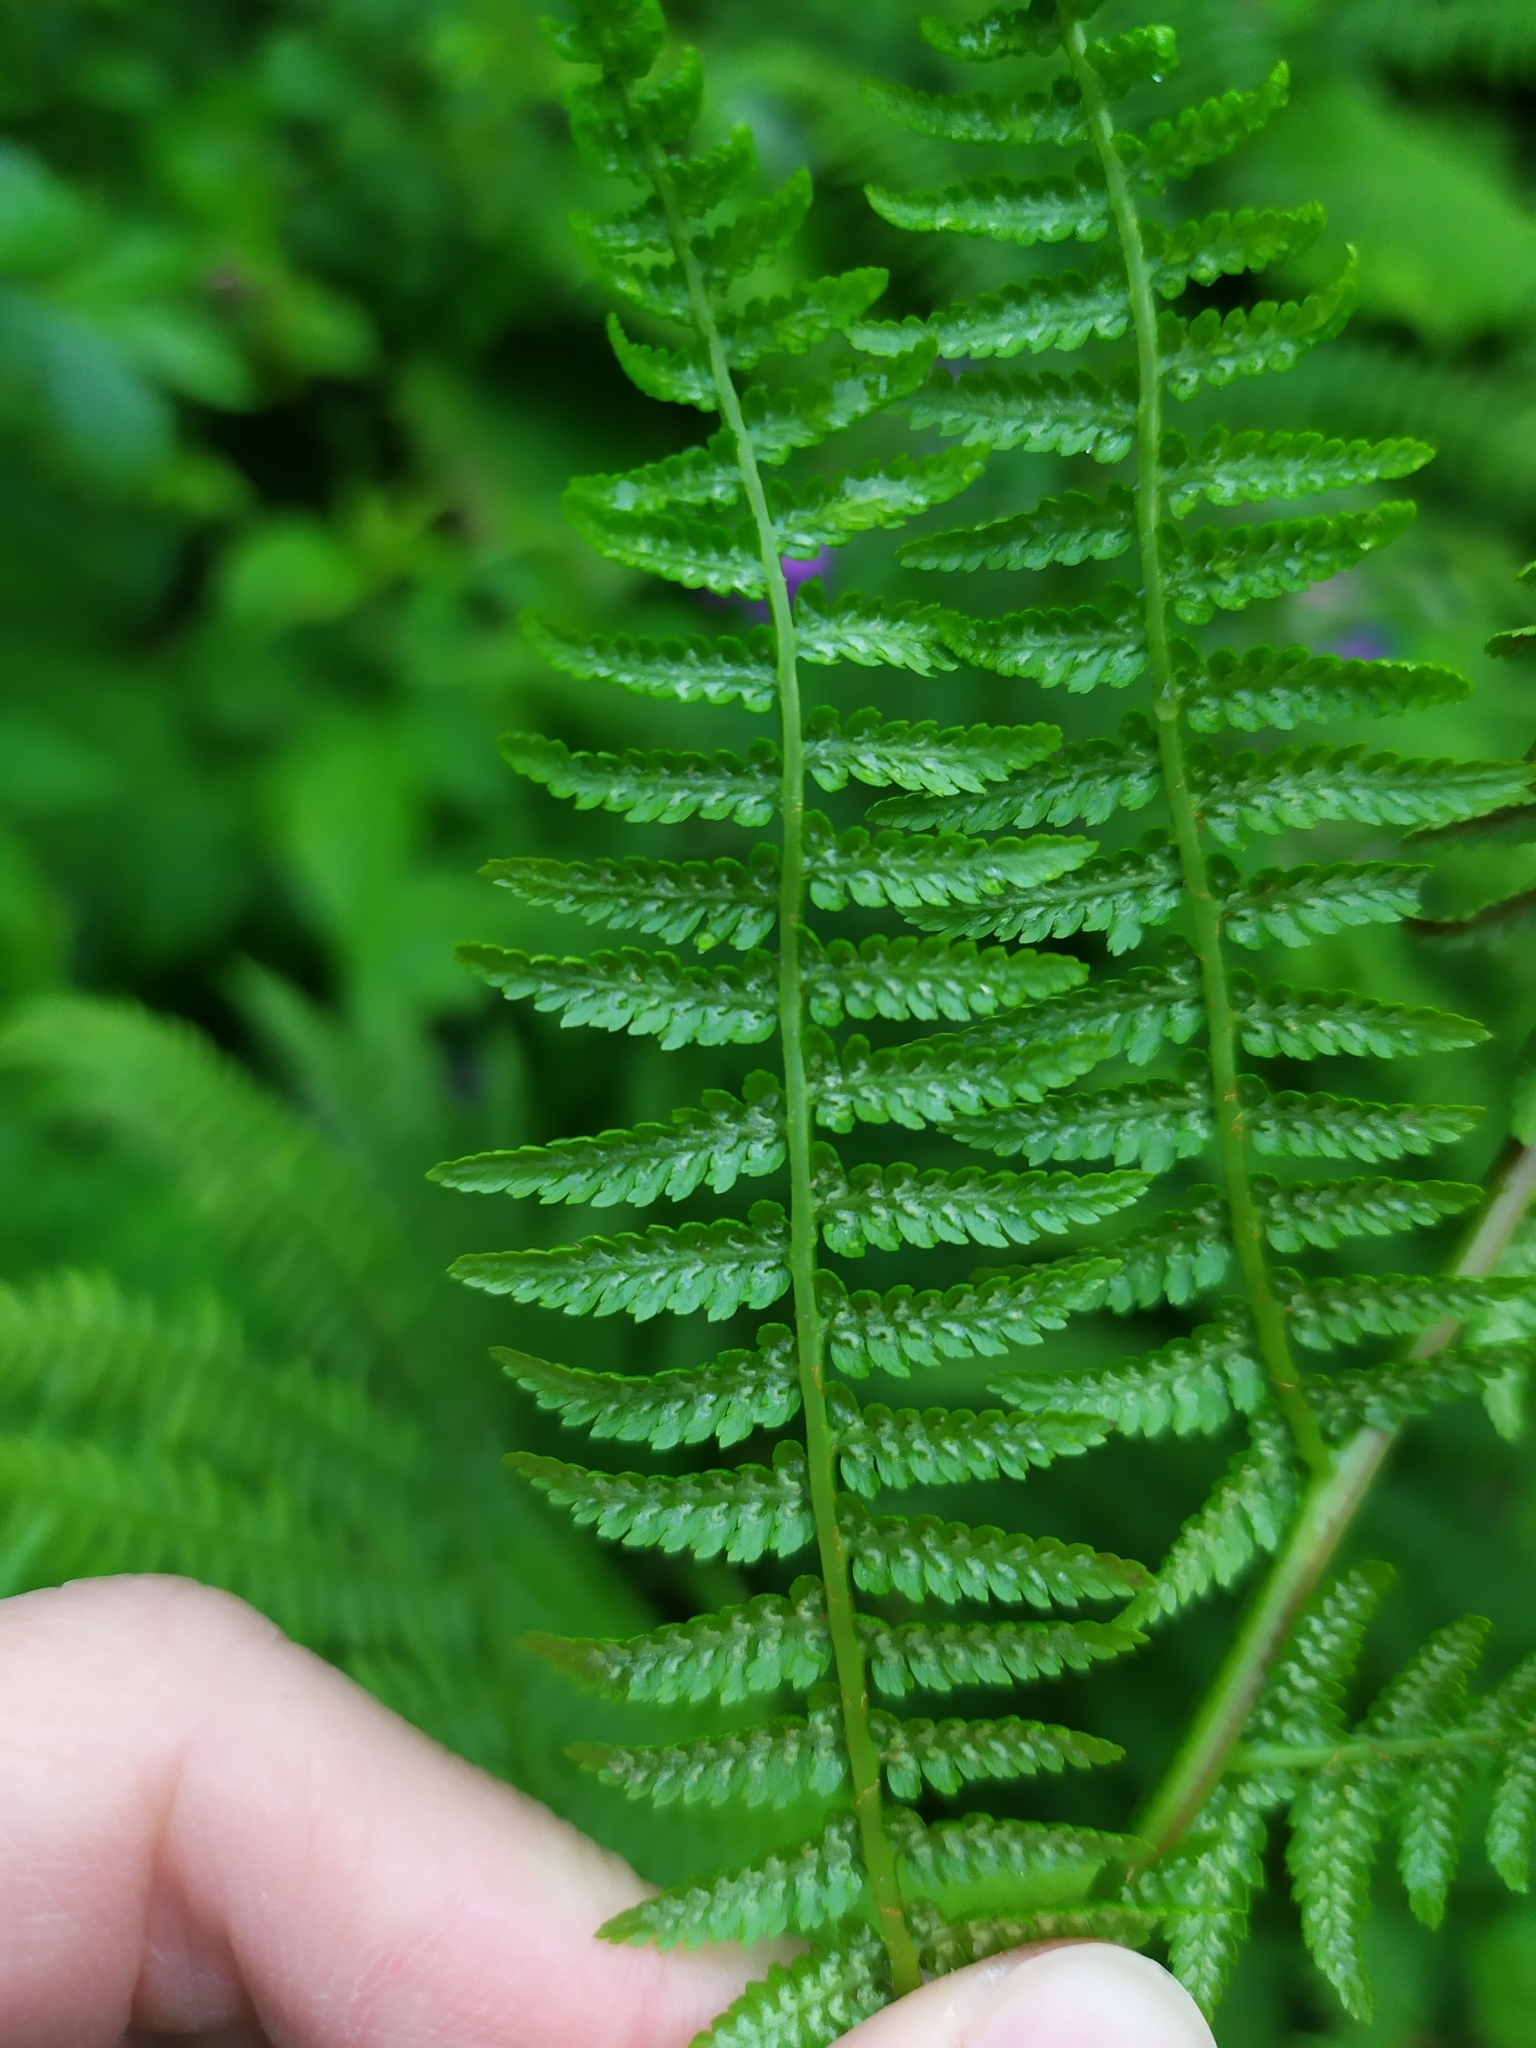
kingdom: Plantae
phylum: Tracheophyta
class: Polypodiopsida
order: Polypodiales
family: Athyriaceae
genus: Athyrium
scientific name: Athyrium filix-femina
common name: Lady fern
